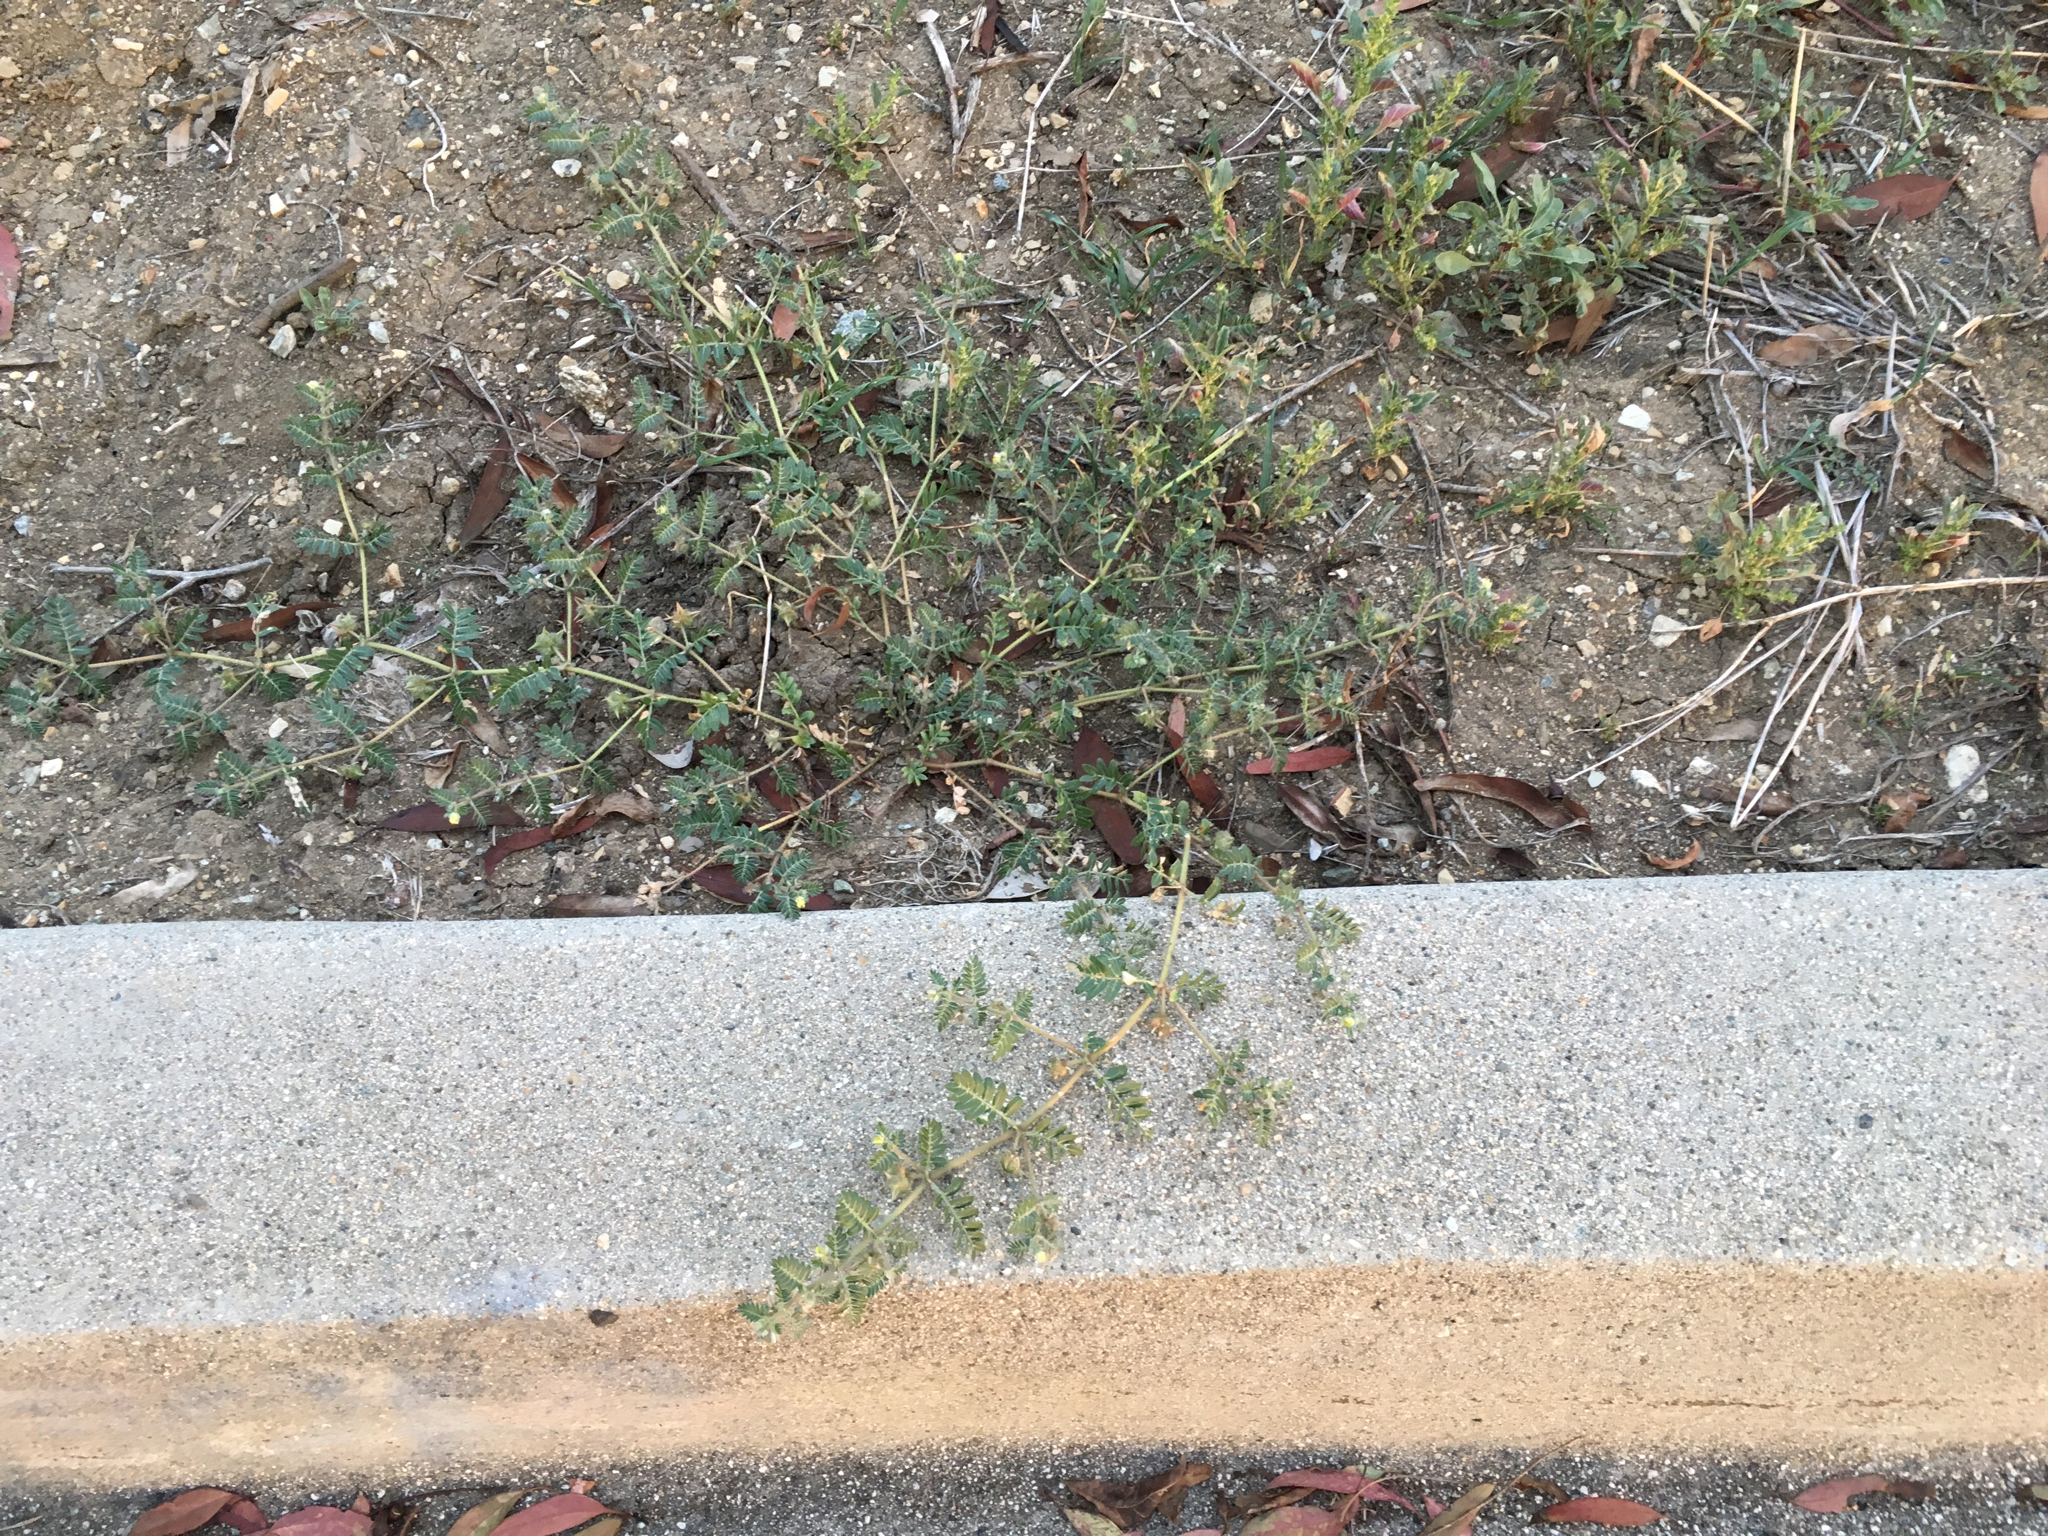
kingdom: Plantae
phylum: Tracheophyta
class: Magnoliopsida
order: Zygophyllales
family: Zygophyllaceae
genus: Tribulus
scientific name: Tribulus terrestris
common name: Puncturevine
